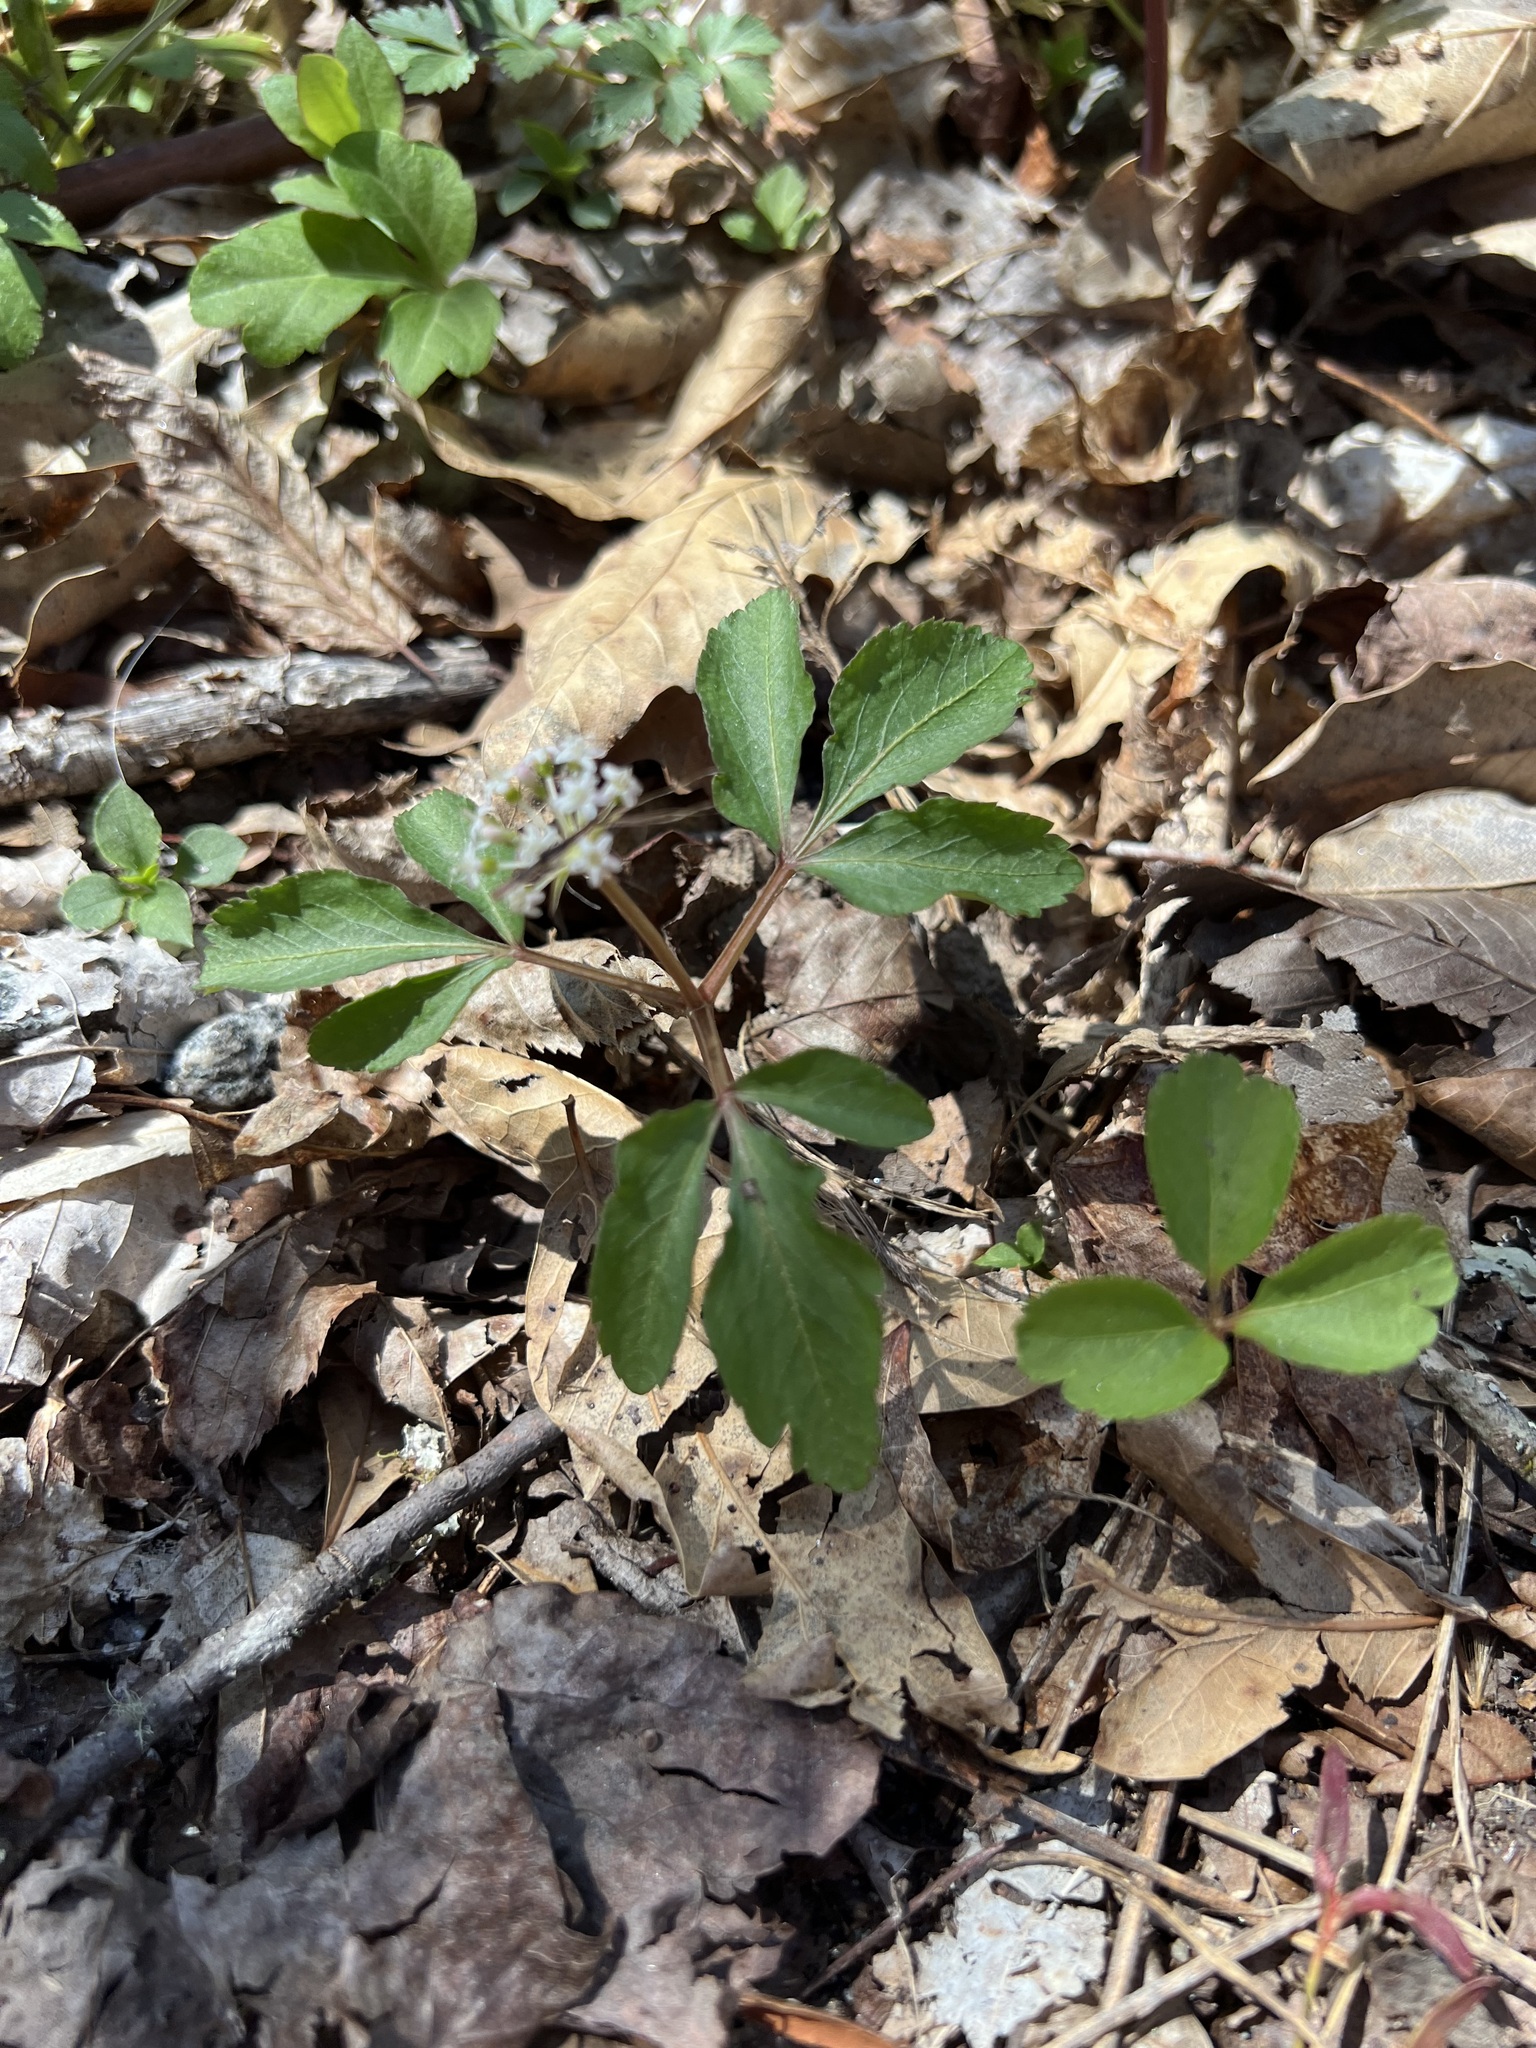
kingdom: Plantae
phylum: Tracheophyta
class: Magnoliopsida
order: Apiales
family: Araliaceae
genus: Panax
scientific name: Panax trifolius
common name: Dwarf ginseng
